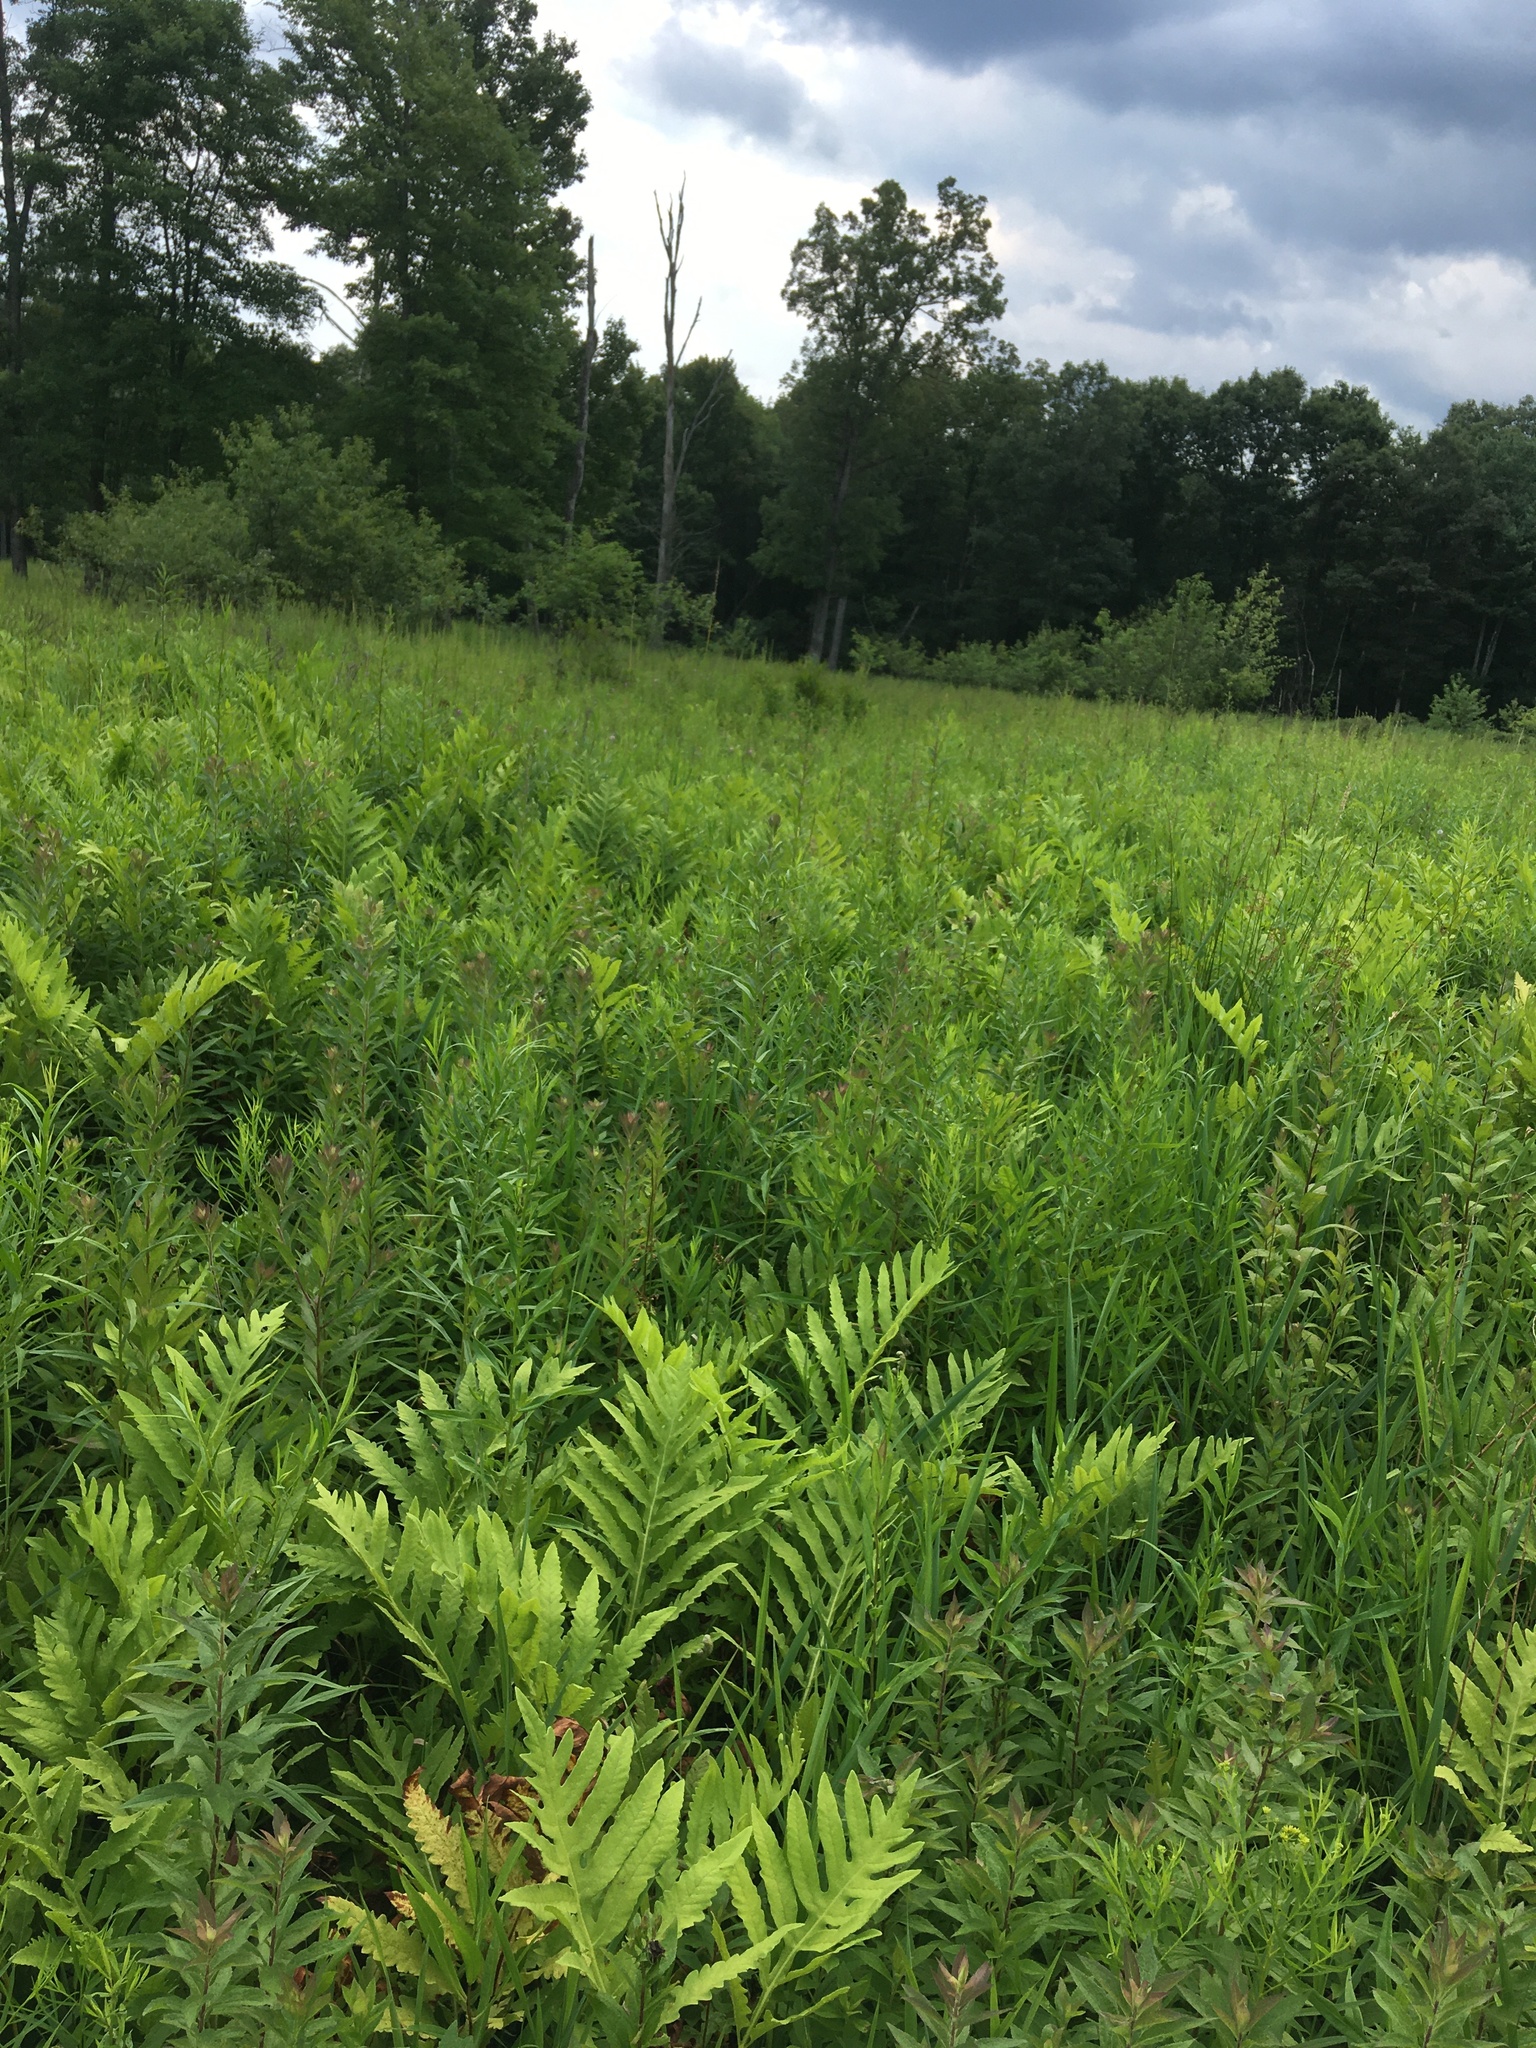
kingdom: Plantae
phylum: Tracheophyta
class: Polypodiopsida
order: Polypodiales
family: Onocleaceae
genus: Onoclea
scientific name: Onoclea sensibilis
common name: Sensitive fern
